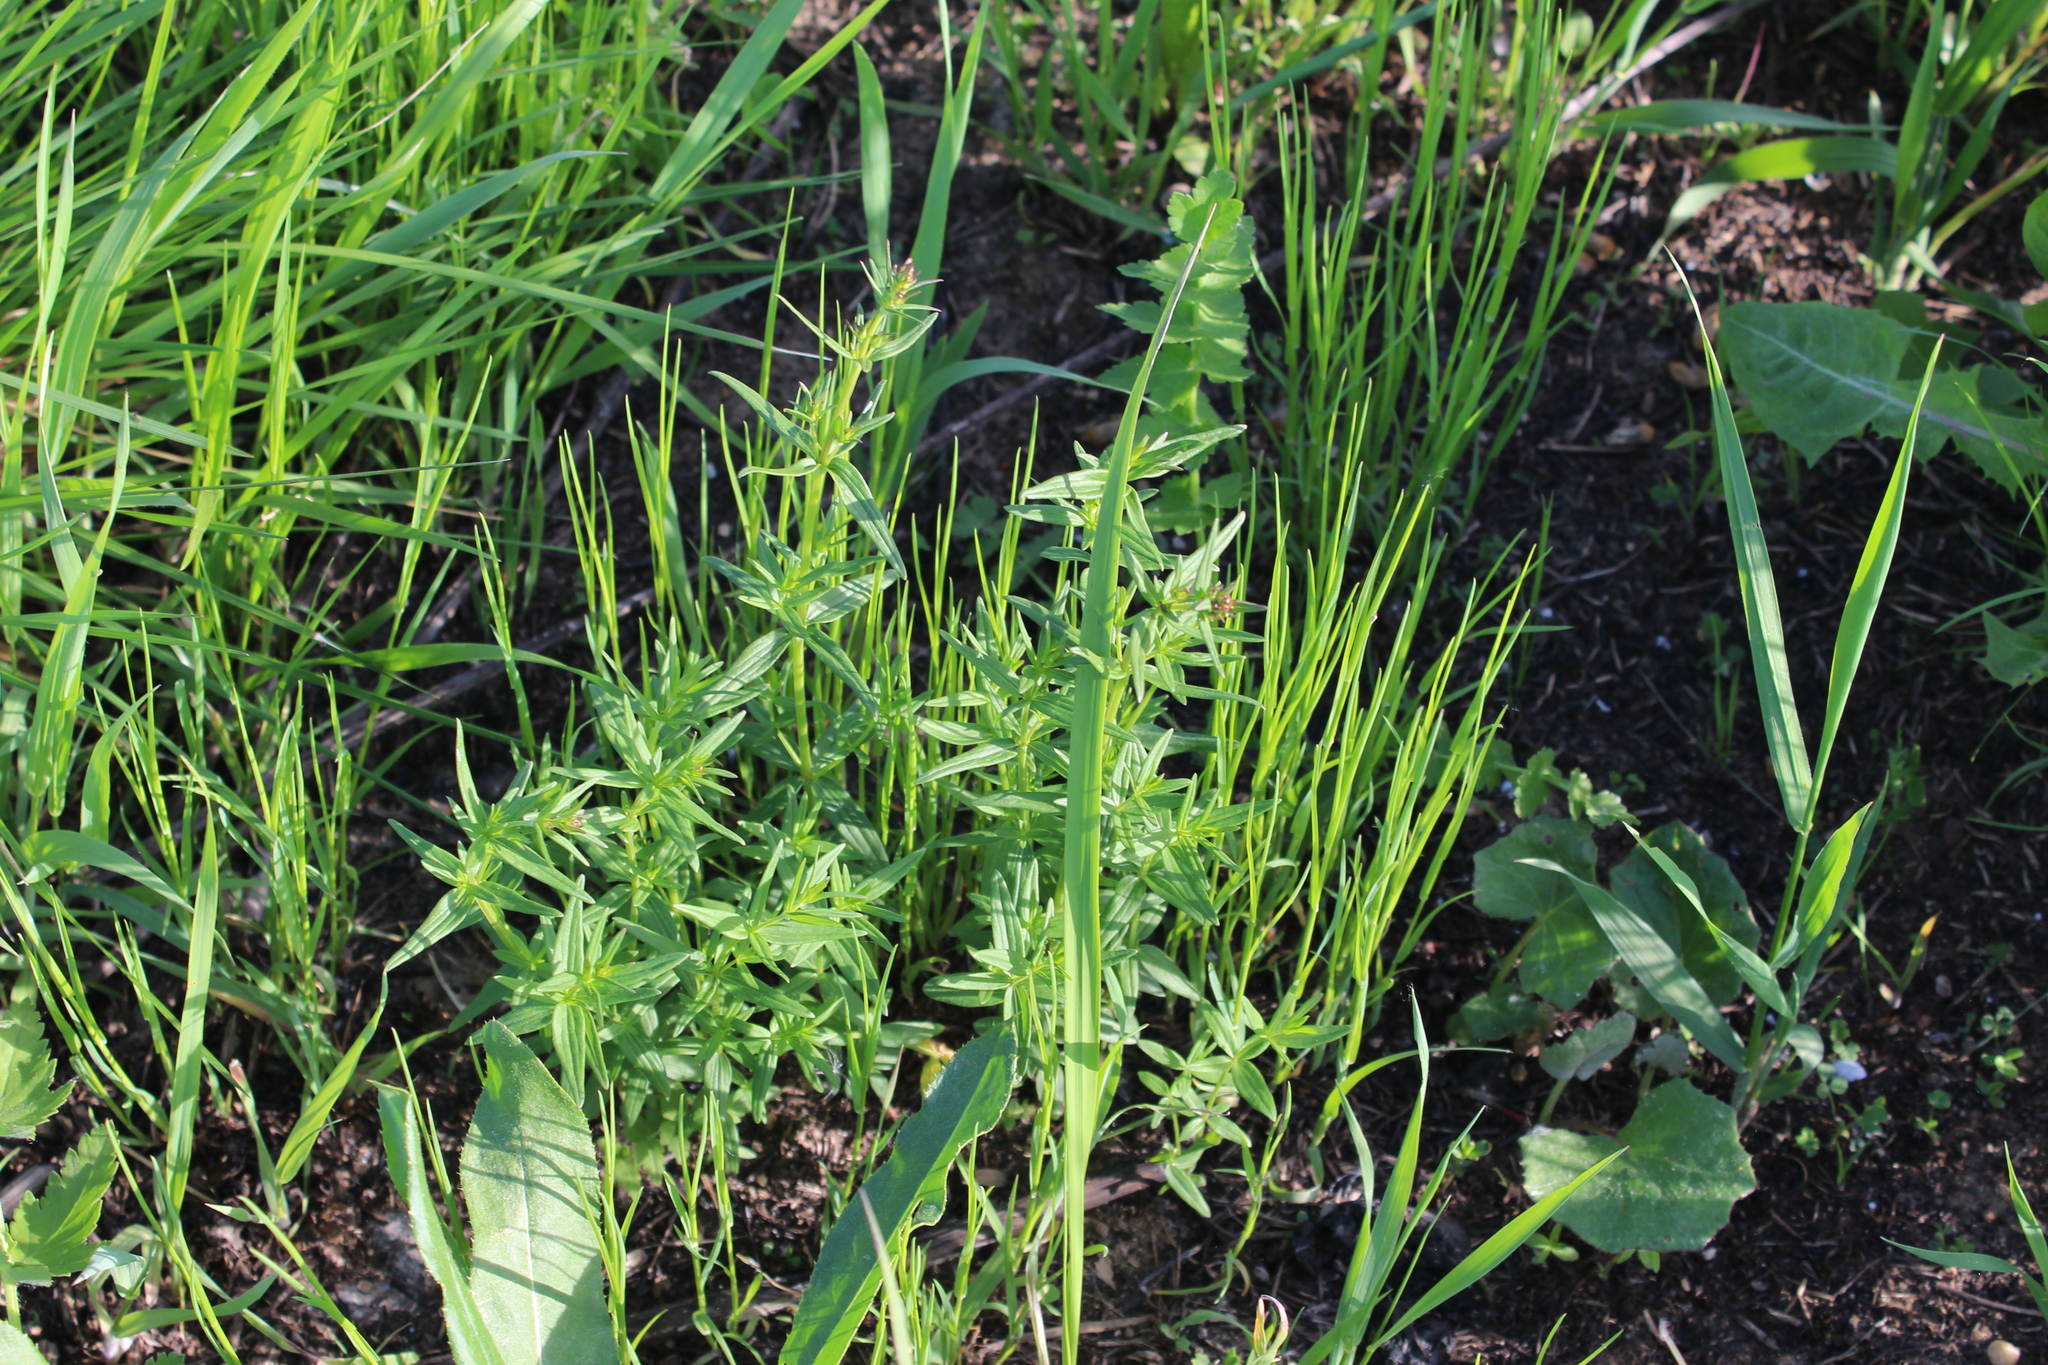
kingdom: Plantae
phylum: Tracheophyta
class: Magnoliopsida
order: Gentianales
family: Rubiaceae
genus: Galium
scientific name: Galium boreale
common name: Northern bedstraw
